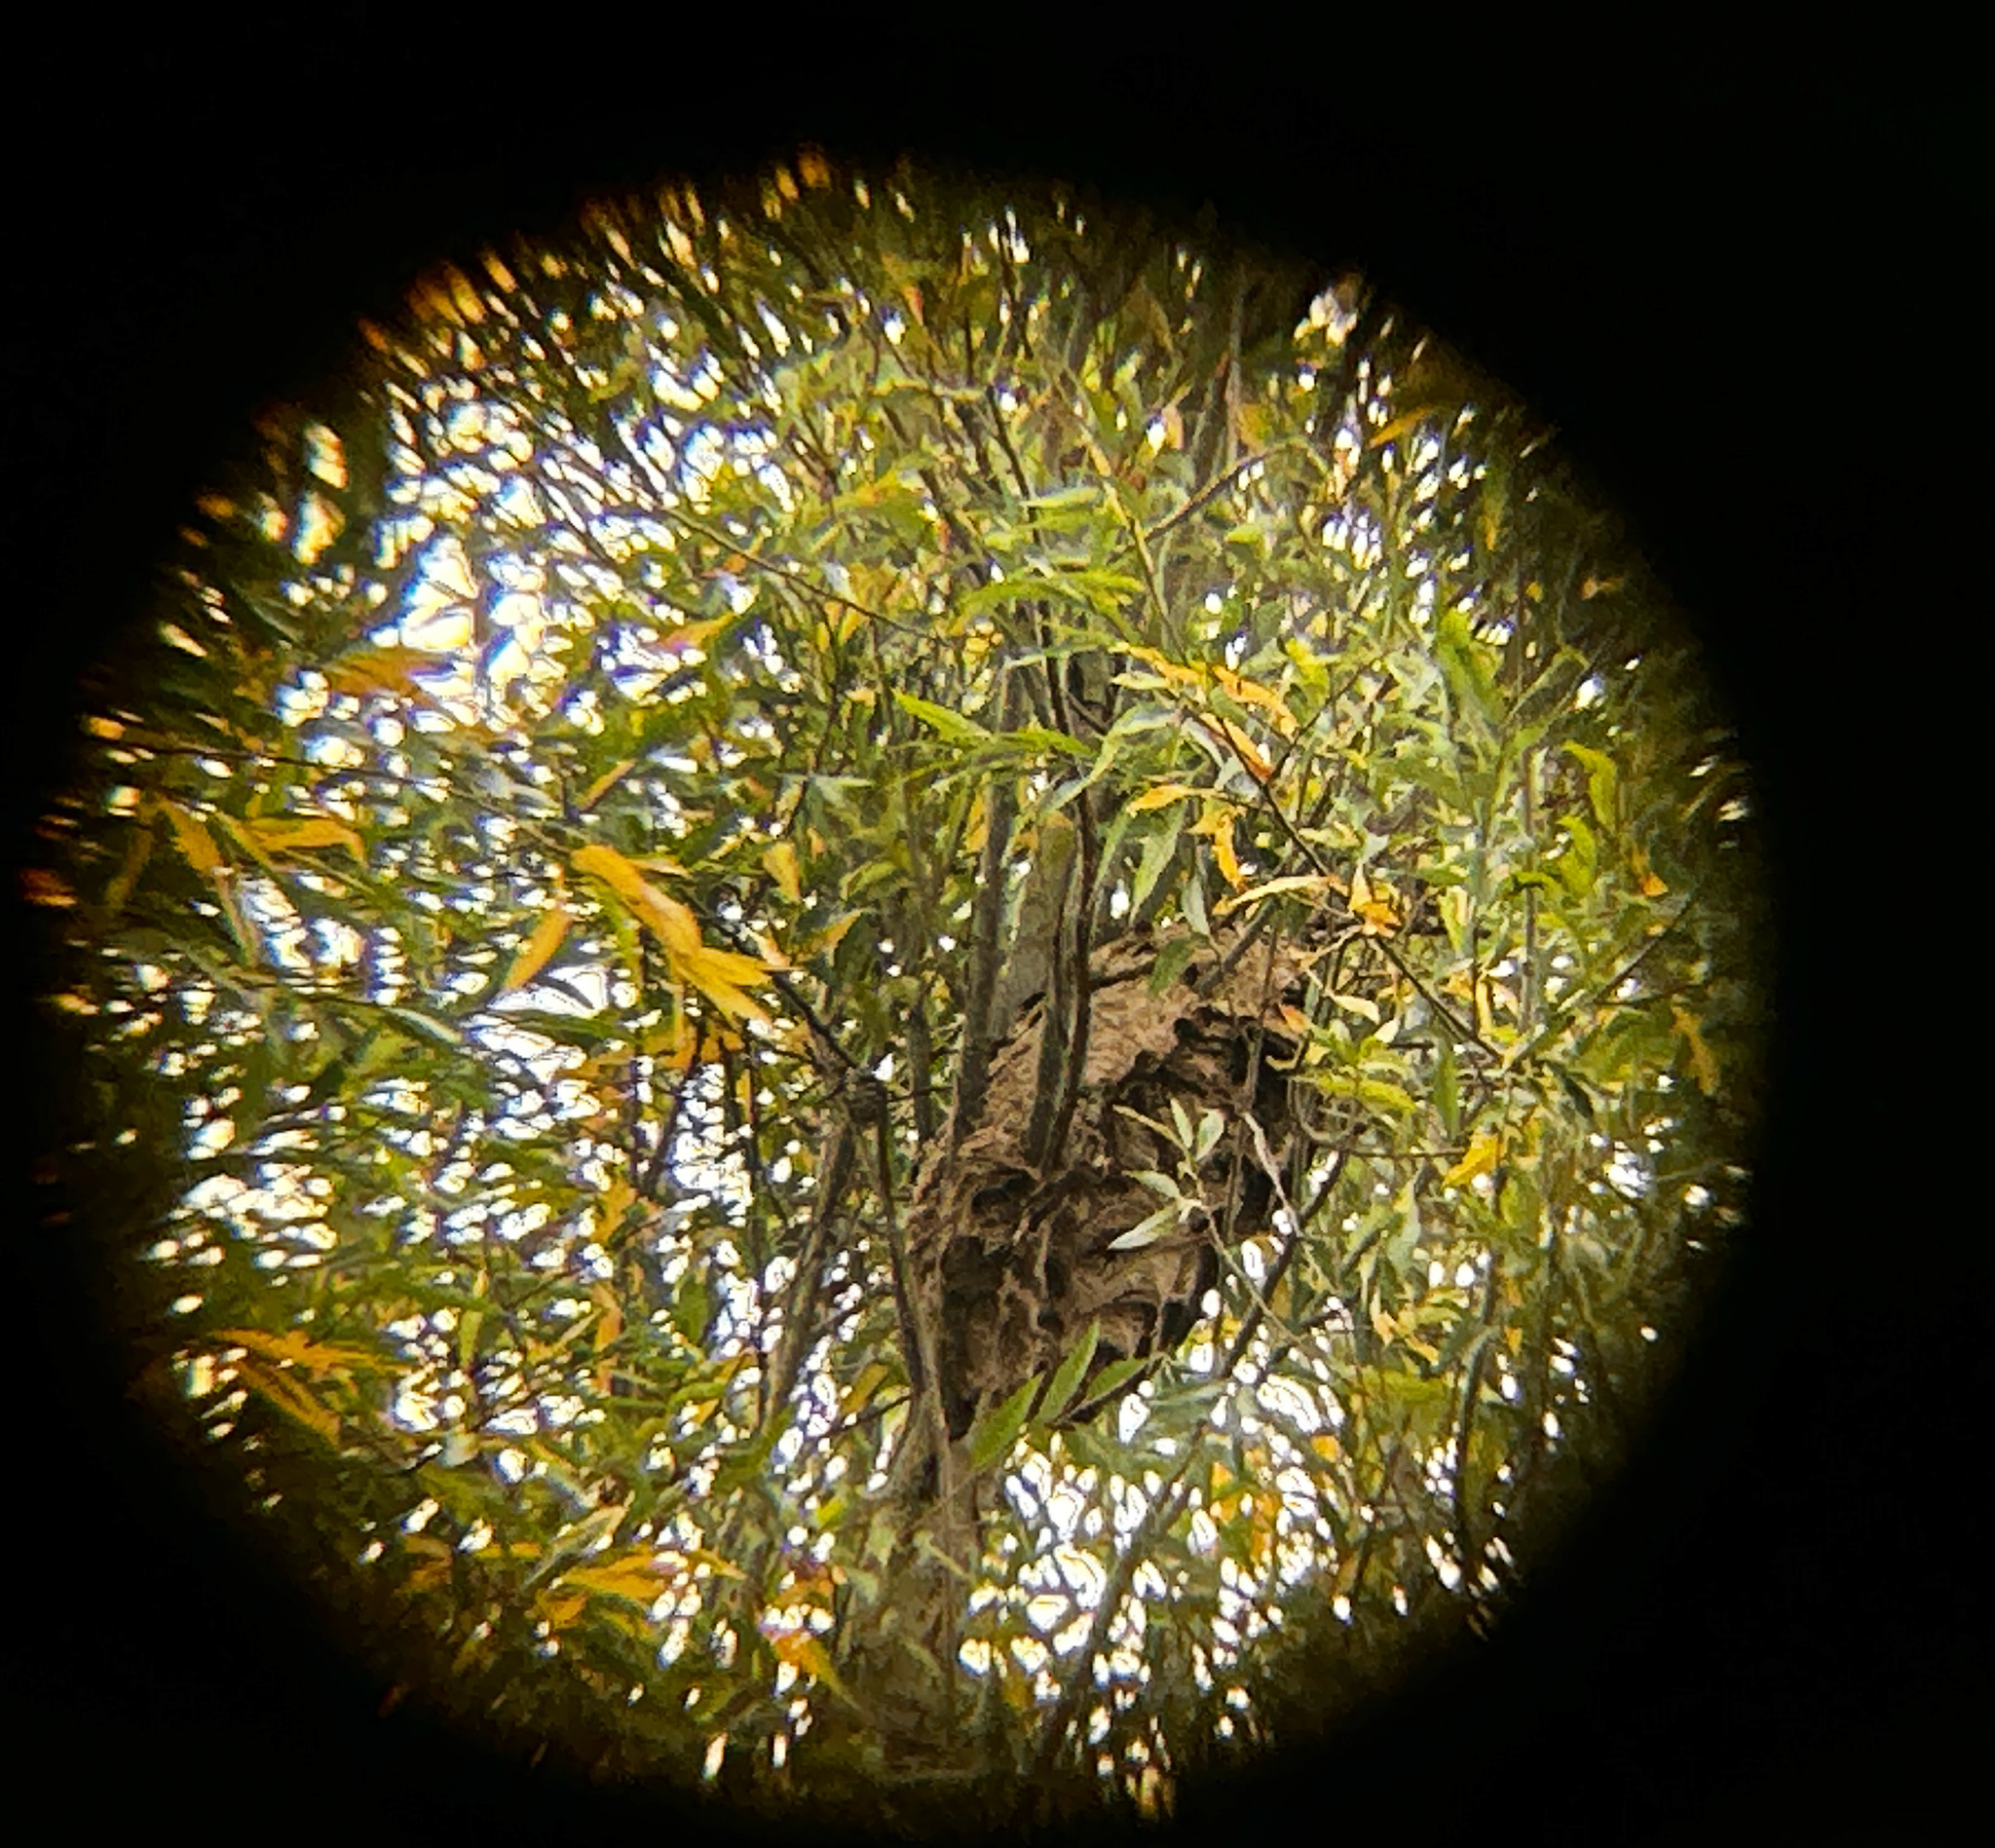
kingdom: Animalia
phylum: Arthropoda
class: Insecta
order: Hymenoptera
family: Vespidae
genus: Vespa
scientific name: Vespa velutina
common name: Asian hornet
